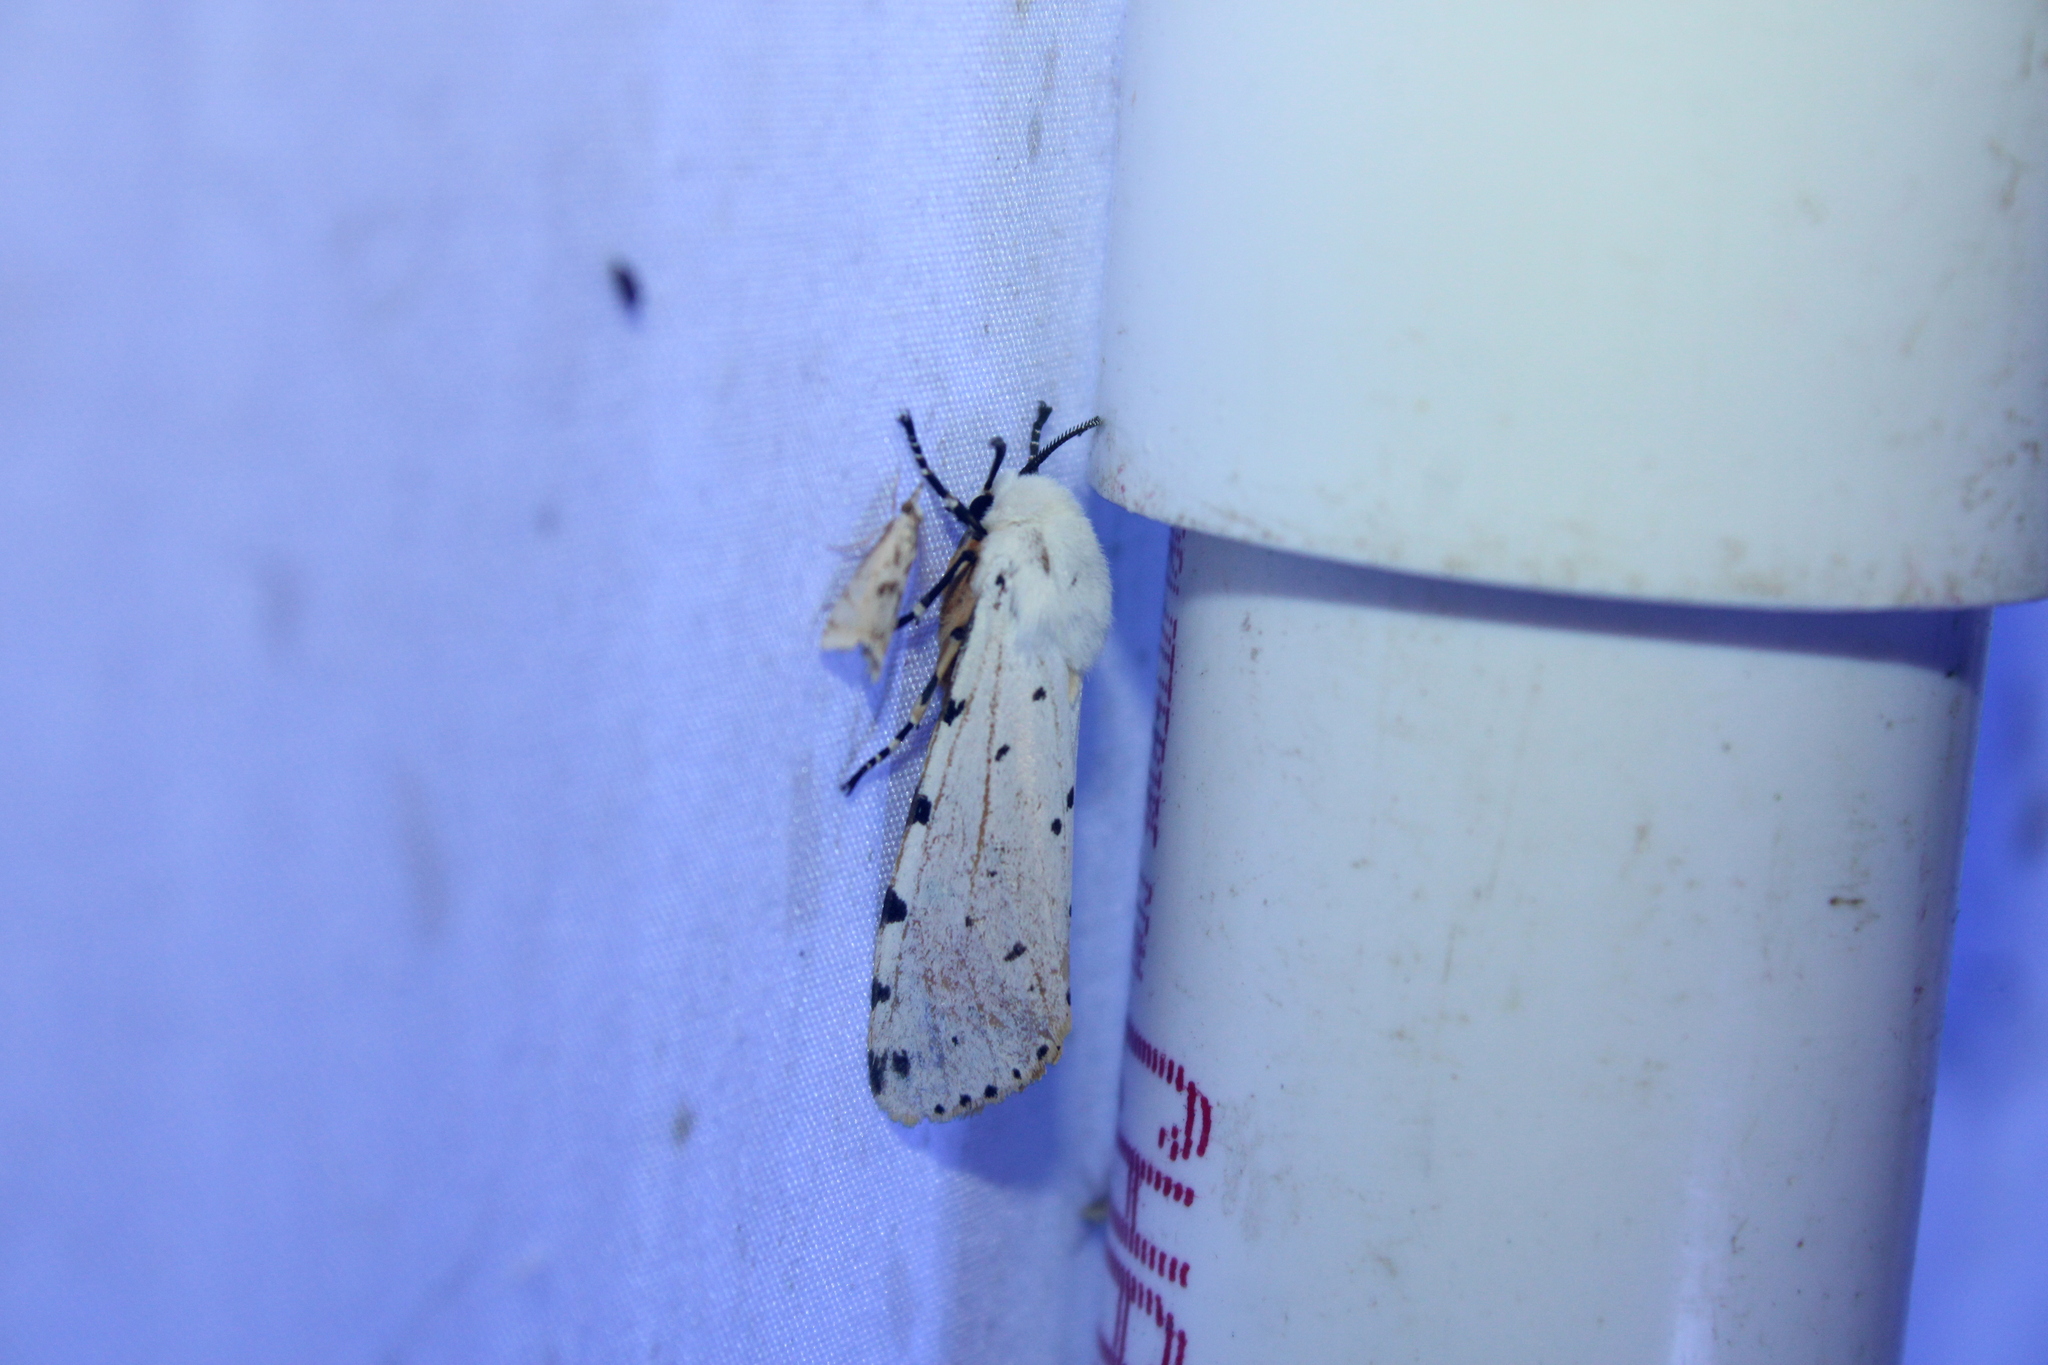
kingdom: Animalia
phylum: Arthropoda
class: Insecta
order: Lepidoptera
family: Erebidae
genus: Estigmene
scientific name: Estigmene acrea
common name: Salt marsh moth
